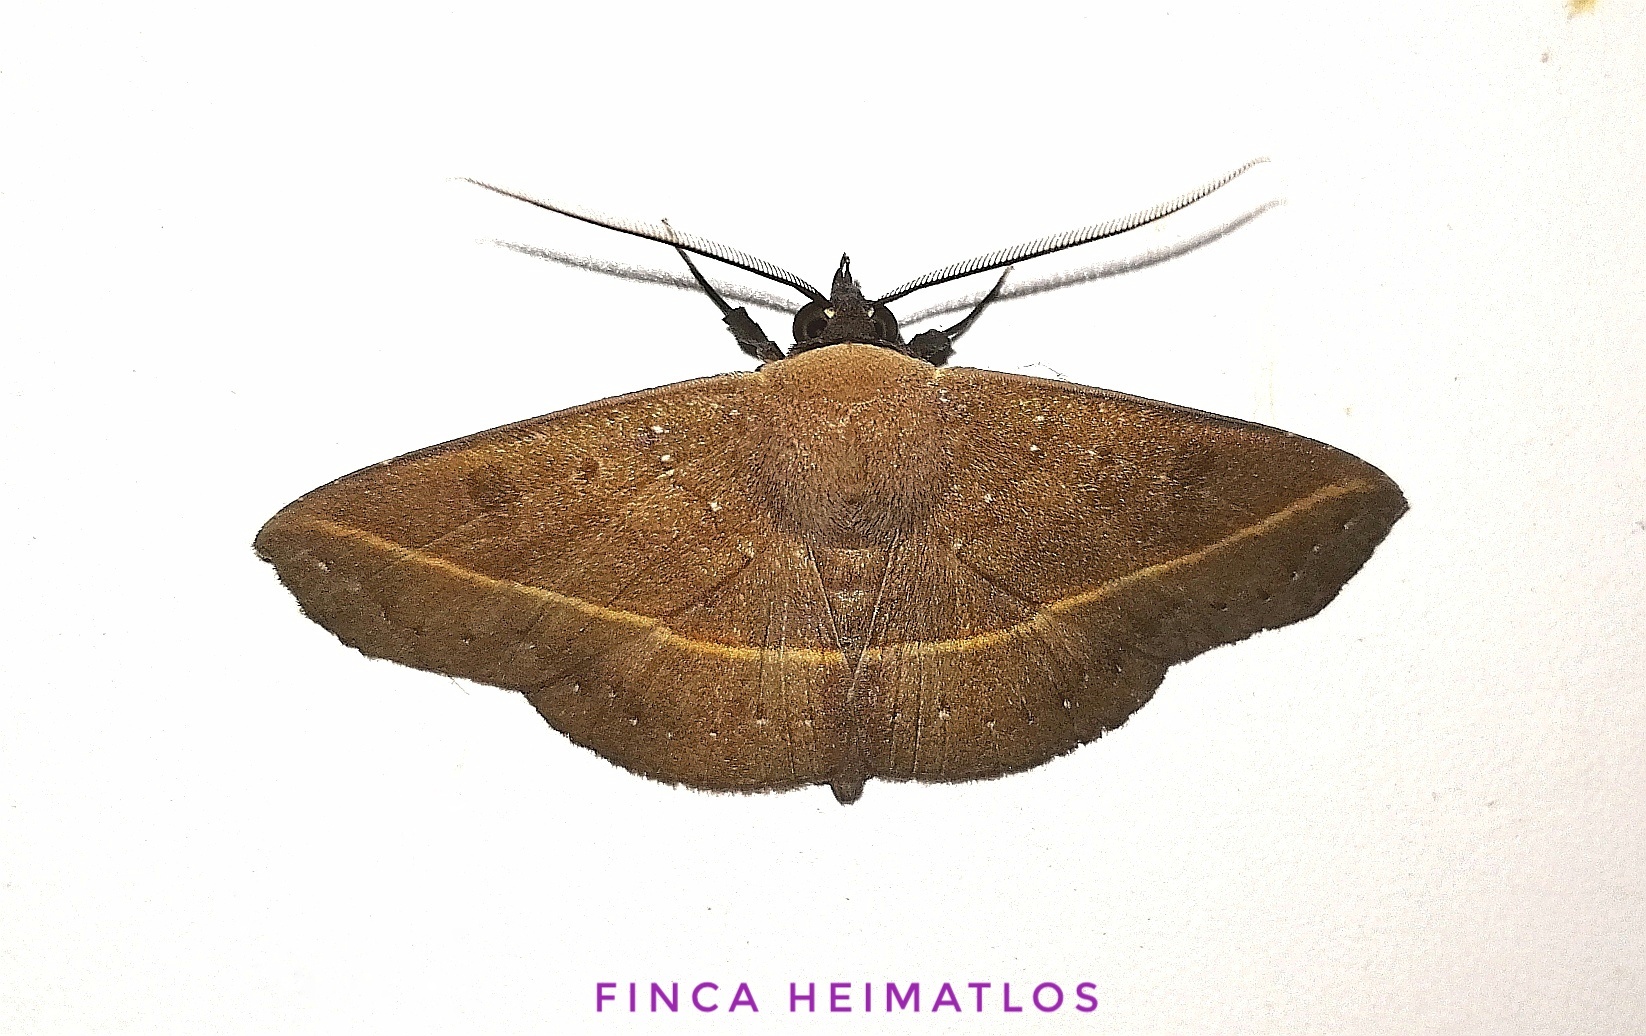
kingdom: Animalia
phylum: Arthropoda
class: Insecta
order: Lepidoptera
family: Erebidae
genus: Epitausa
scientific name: Epitausa pavescens
